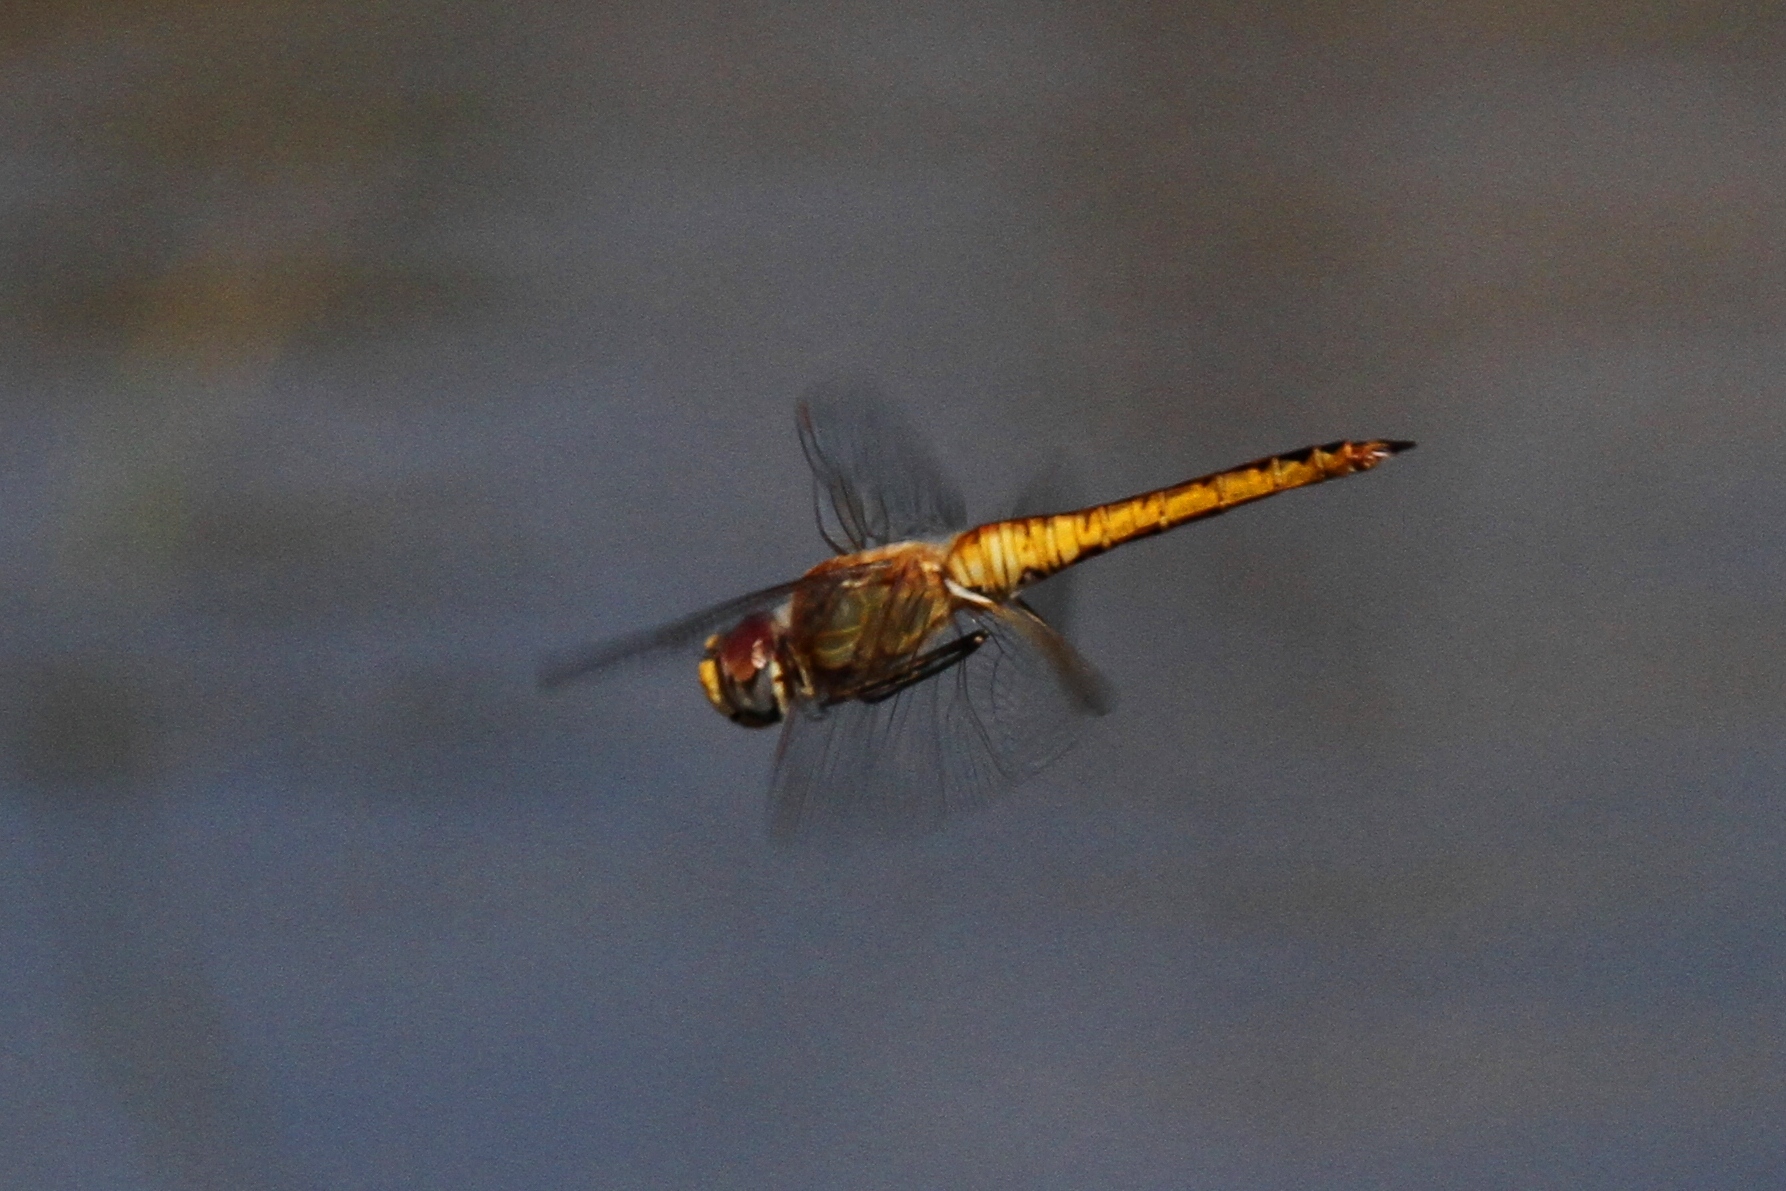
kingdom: Animalia
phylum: Arthropoda
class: Insecta
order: Odonata
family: Libellulidae
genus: Pantala
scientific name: Pantala flavescens
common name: Wandering glider
